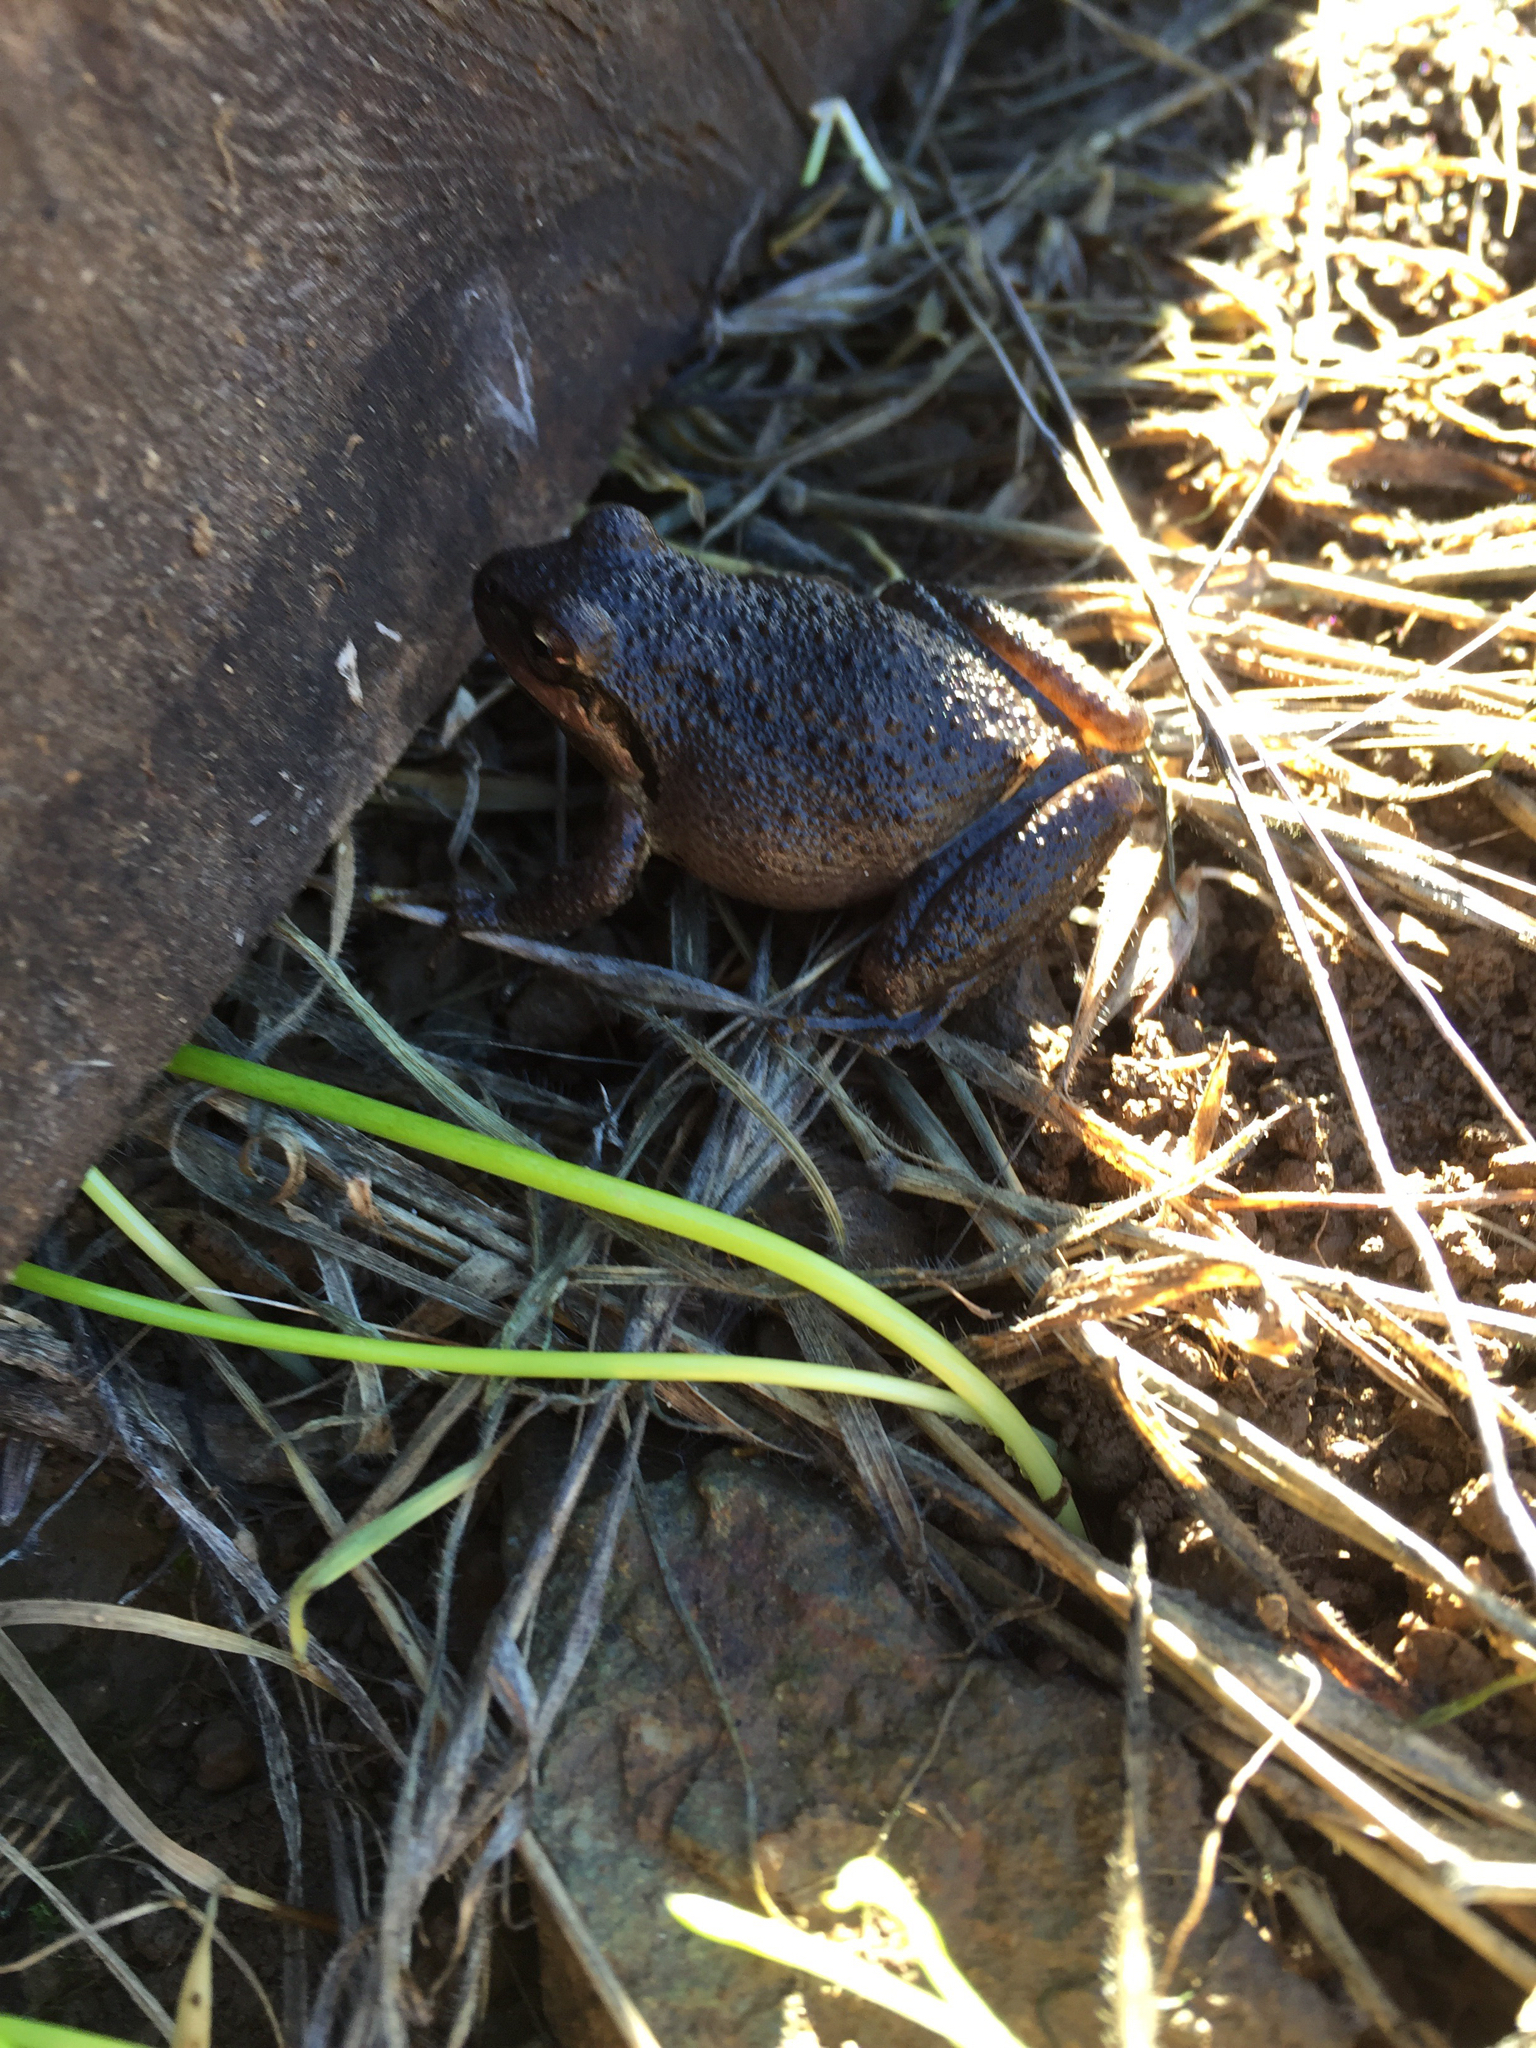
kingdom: Animalia
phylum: Chordata
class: Amphibia
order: Anura
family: Hylidae
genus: Pseudacris
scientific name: Pseudacris regilla
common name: Pacific chorus frog
